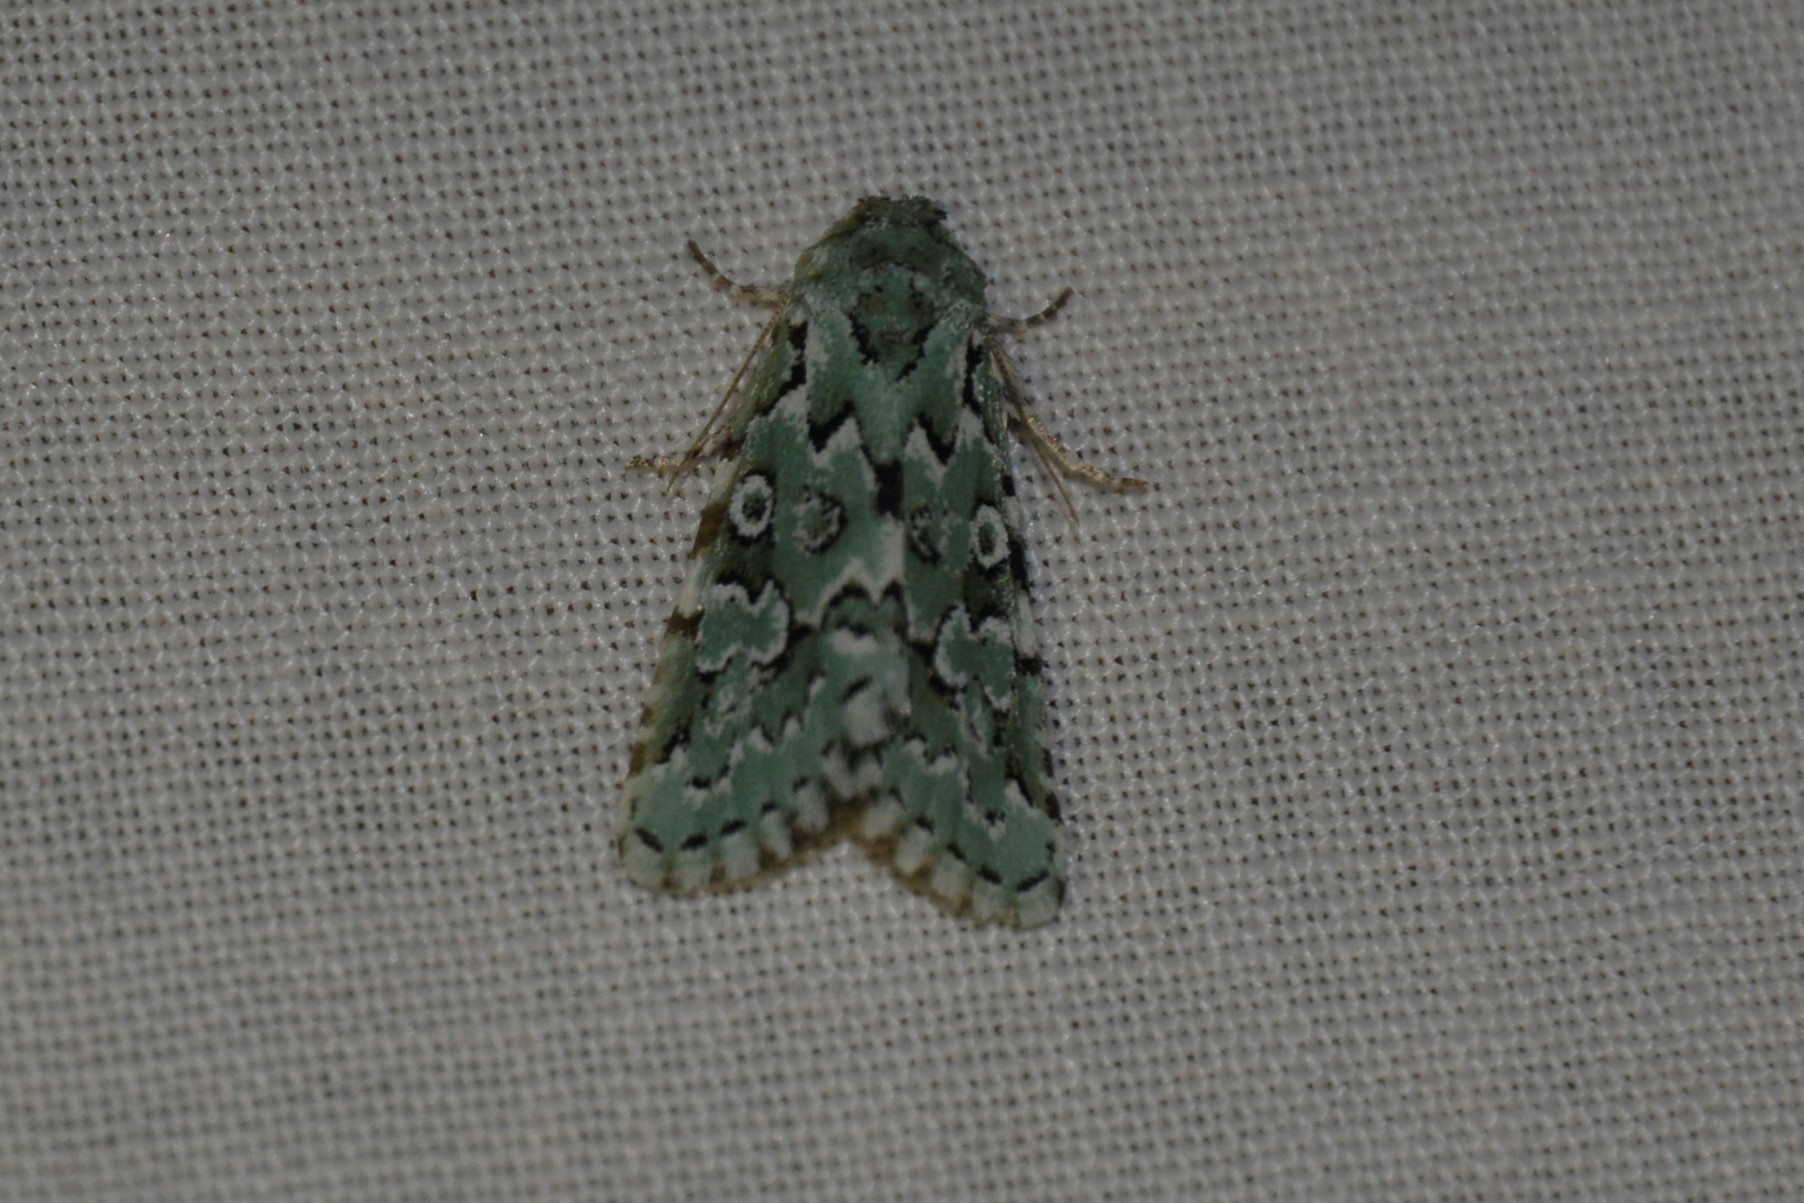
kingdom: Animalia
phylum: Arthropoda
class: Insecta
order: Lepidoptera
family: Noctuidae
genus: Bryolymnia
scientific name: Bryolymnia viridata
